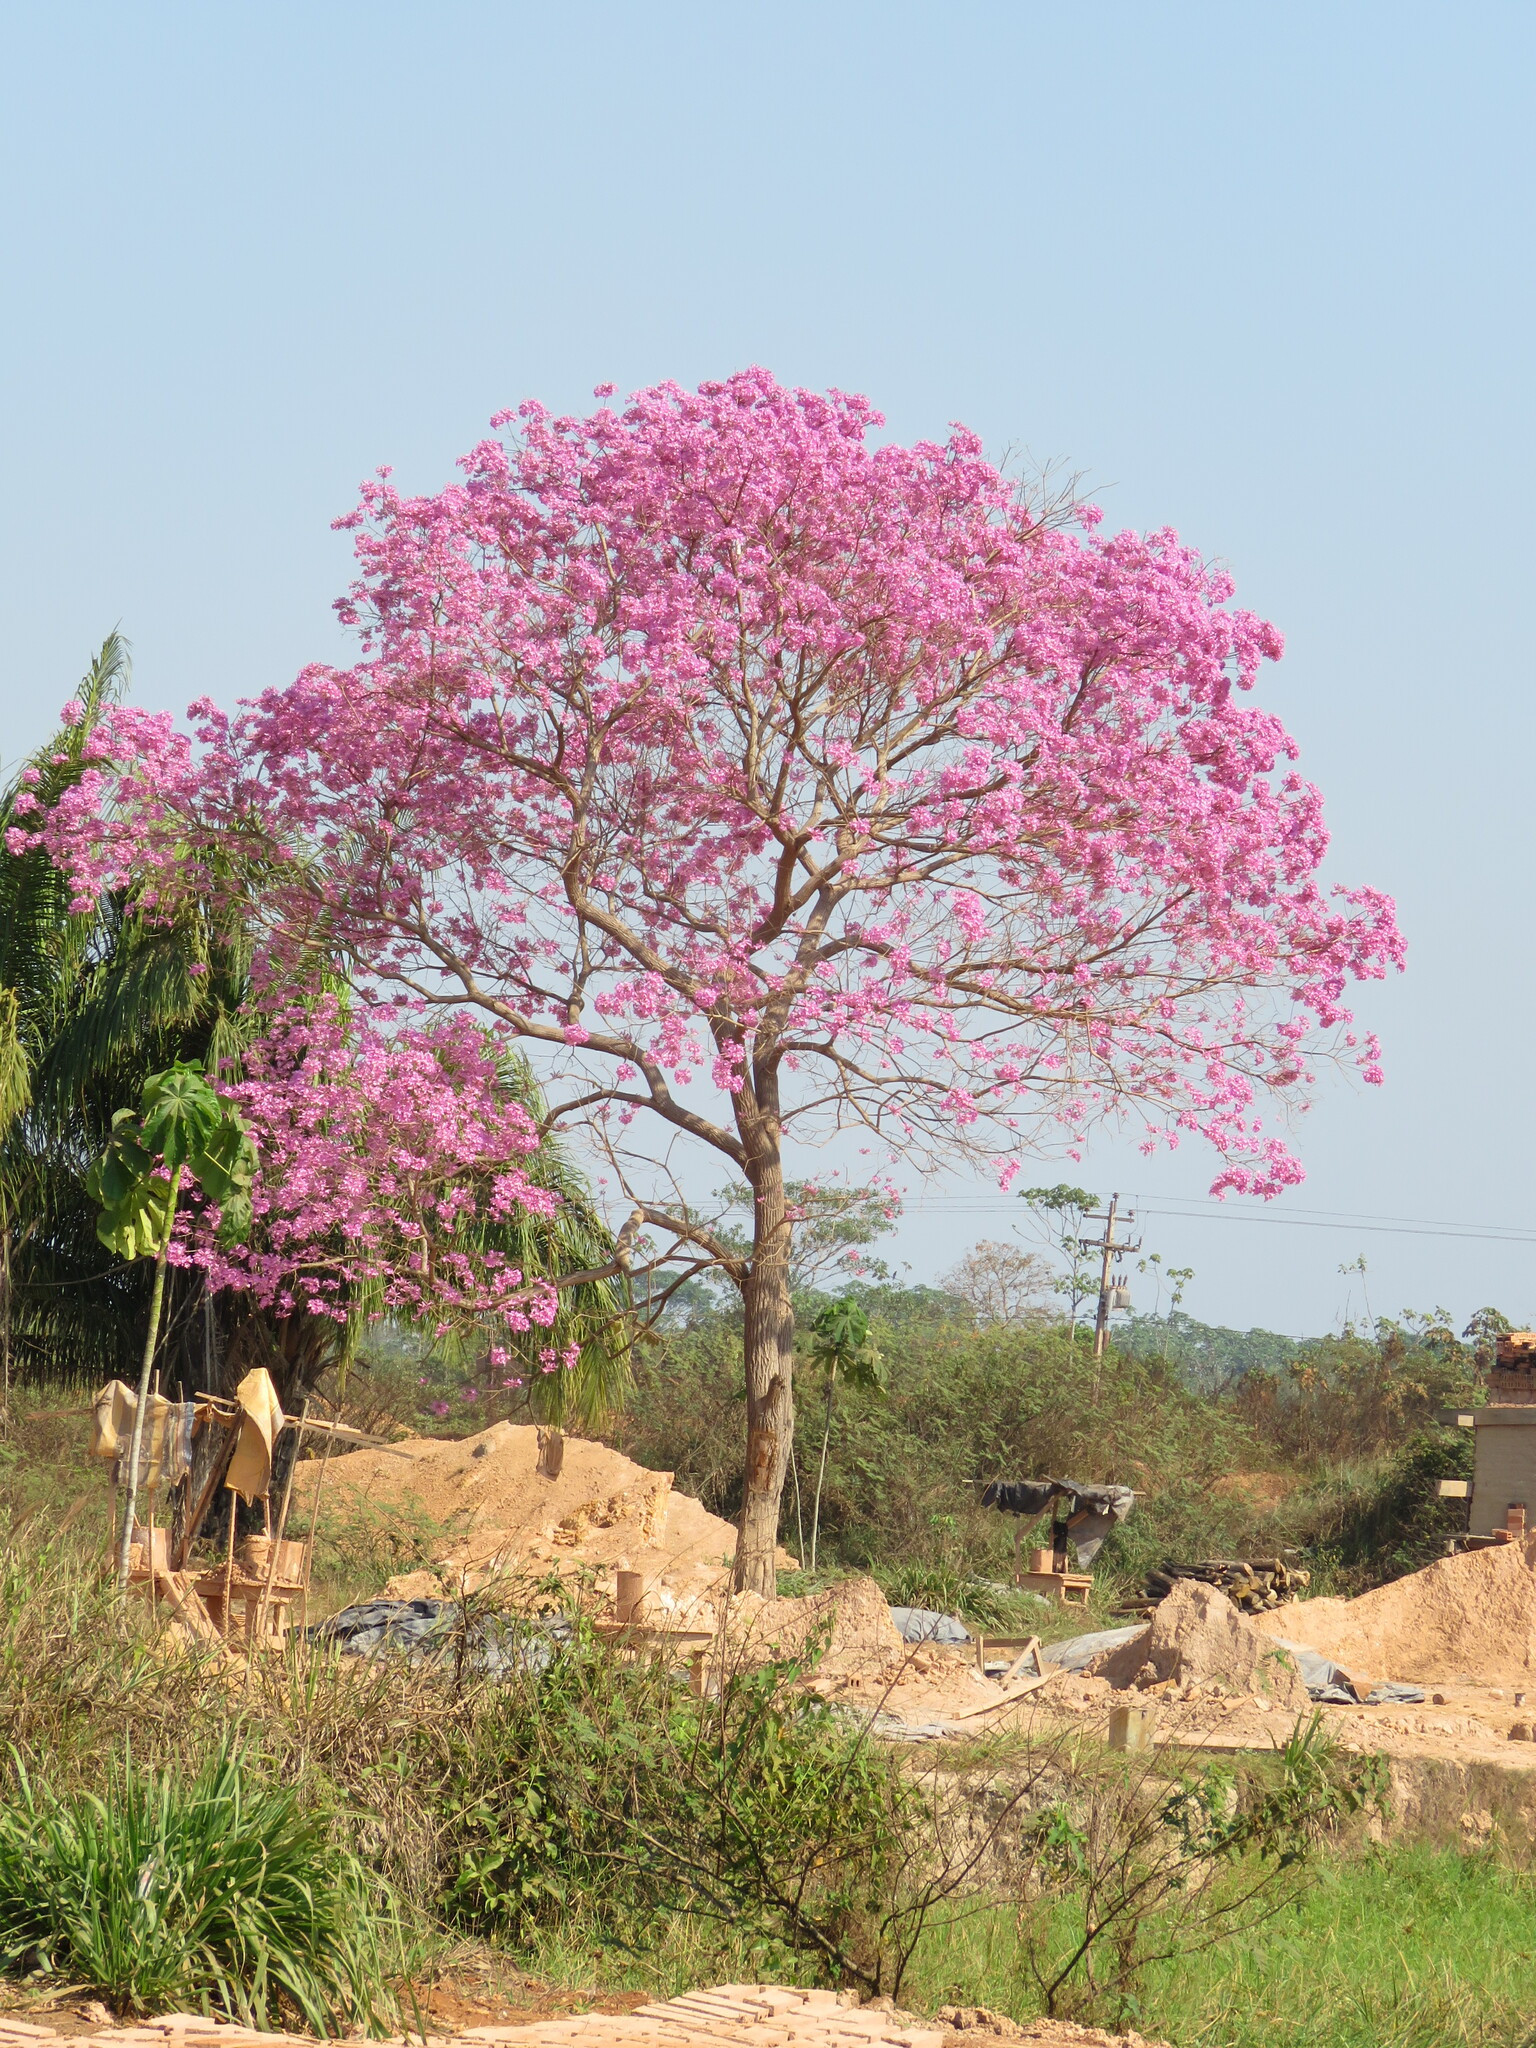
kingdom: Plantae
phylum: Tracheophyta
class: Magnoliopsida
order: Lamiales
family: Bignoniaceae
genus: Handroanthus
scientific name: Handroanthus impetiginosum
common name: Pink trumpet tree
